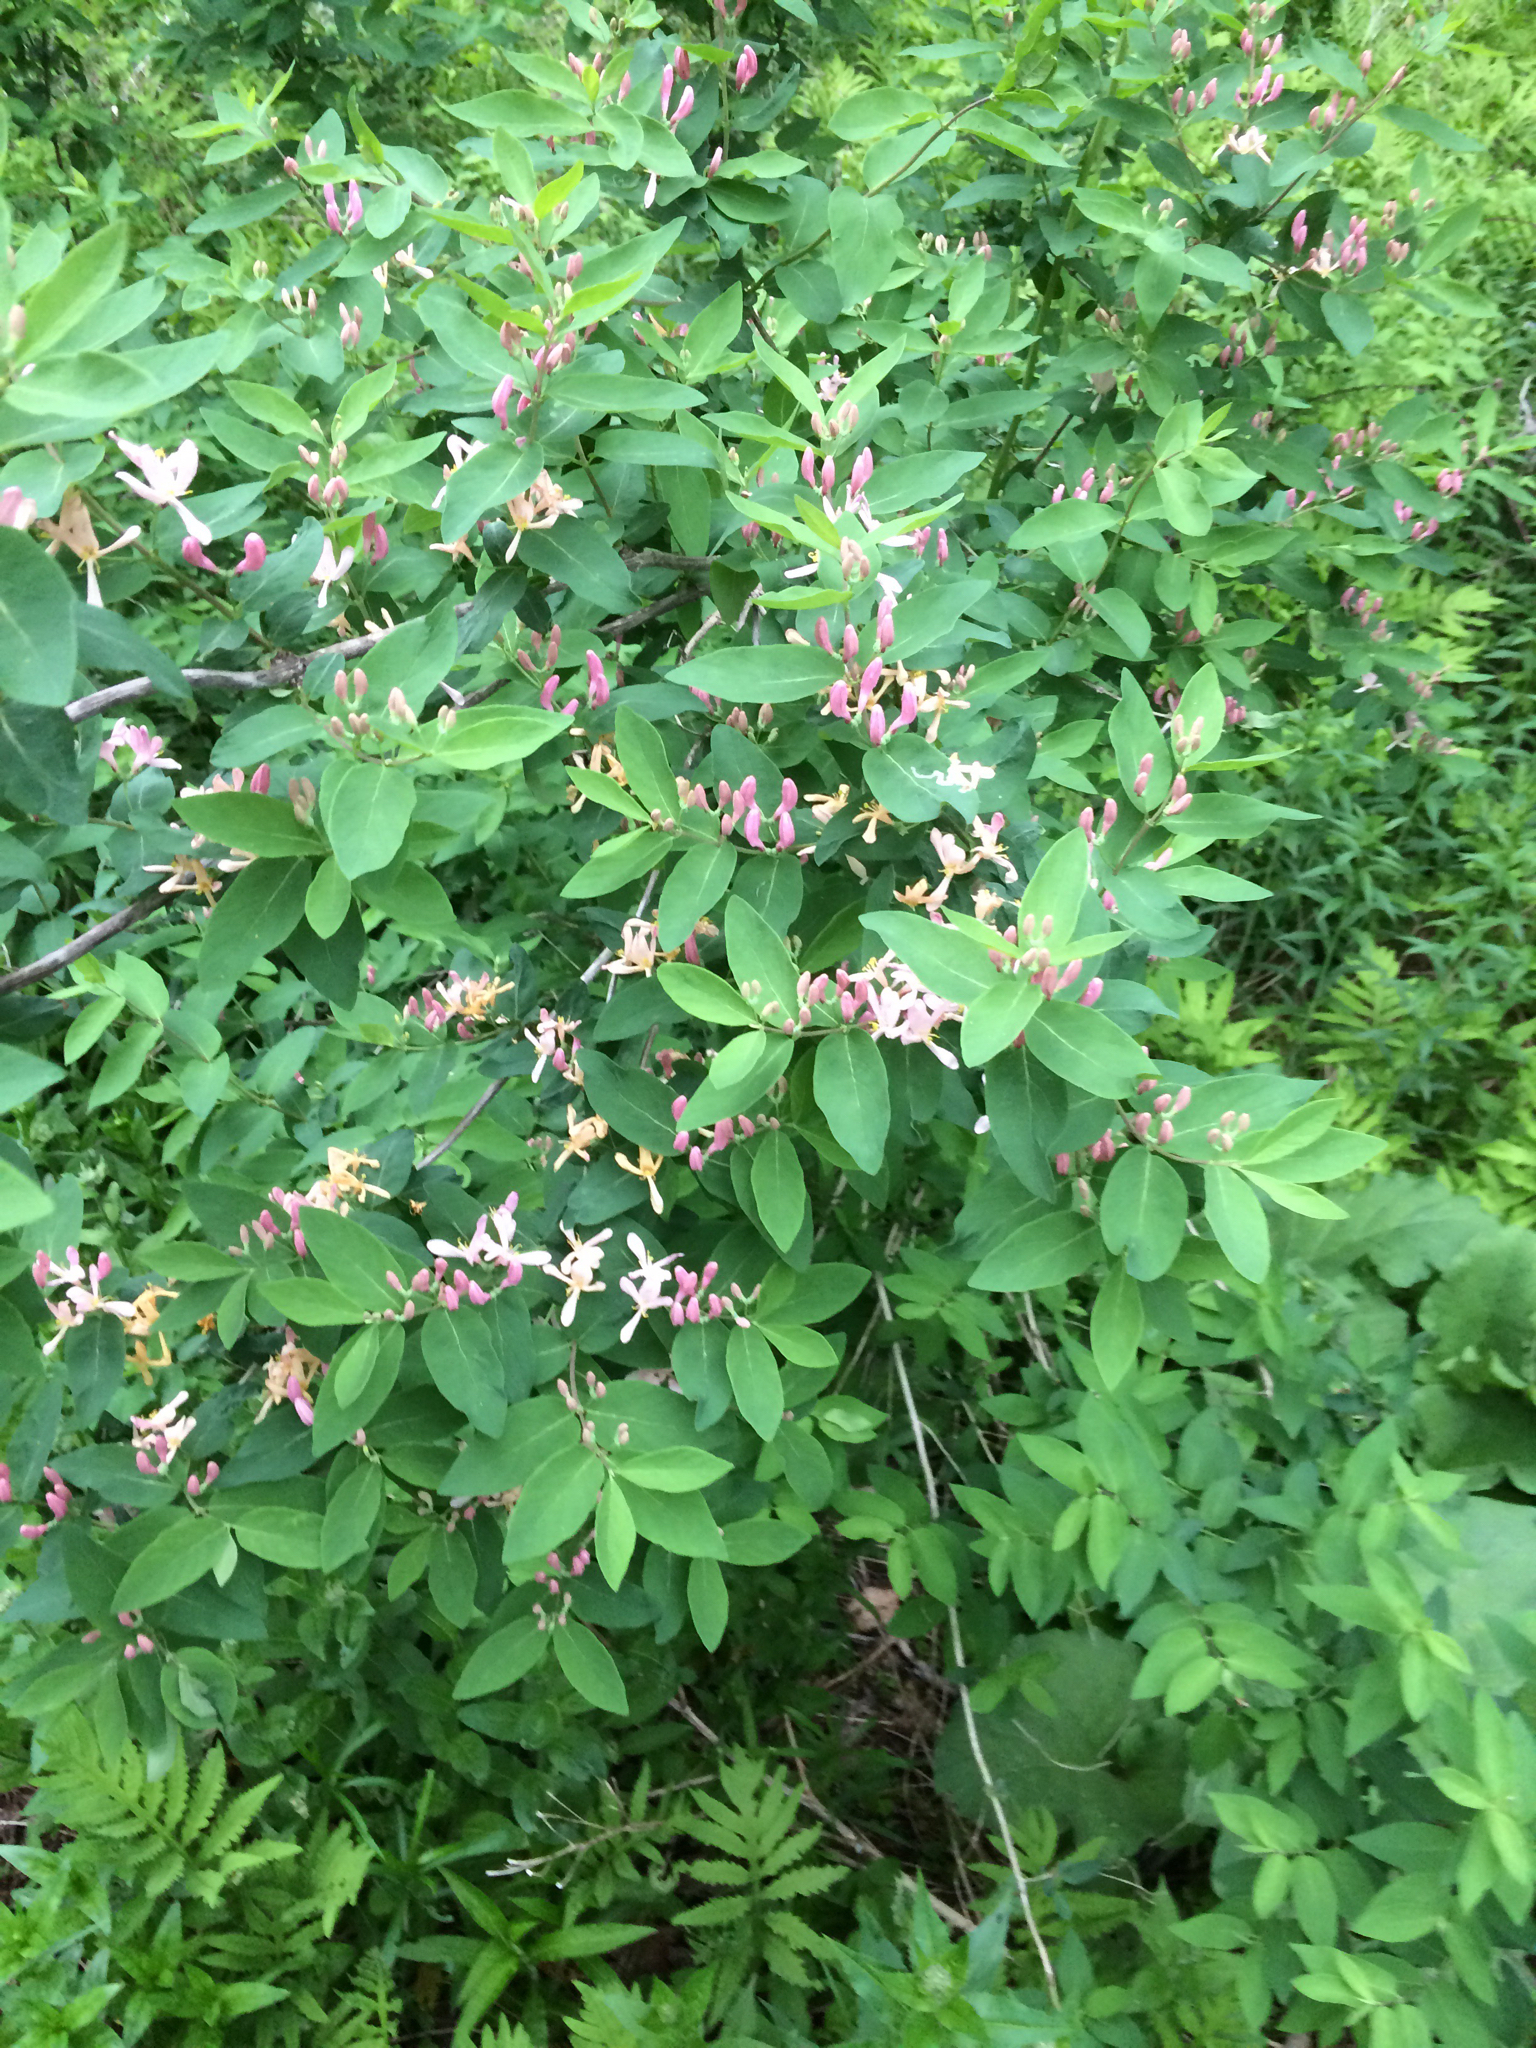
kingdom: Plantae
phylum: Tracheophyta
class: Magnoliopsida
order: Dipsacales
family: Caprifoliaceae
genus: Lonicera
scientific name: Lonicera tatarica
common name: Tatarian honeysuckle
